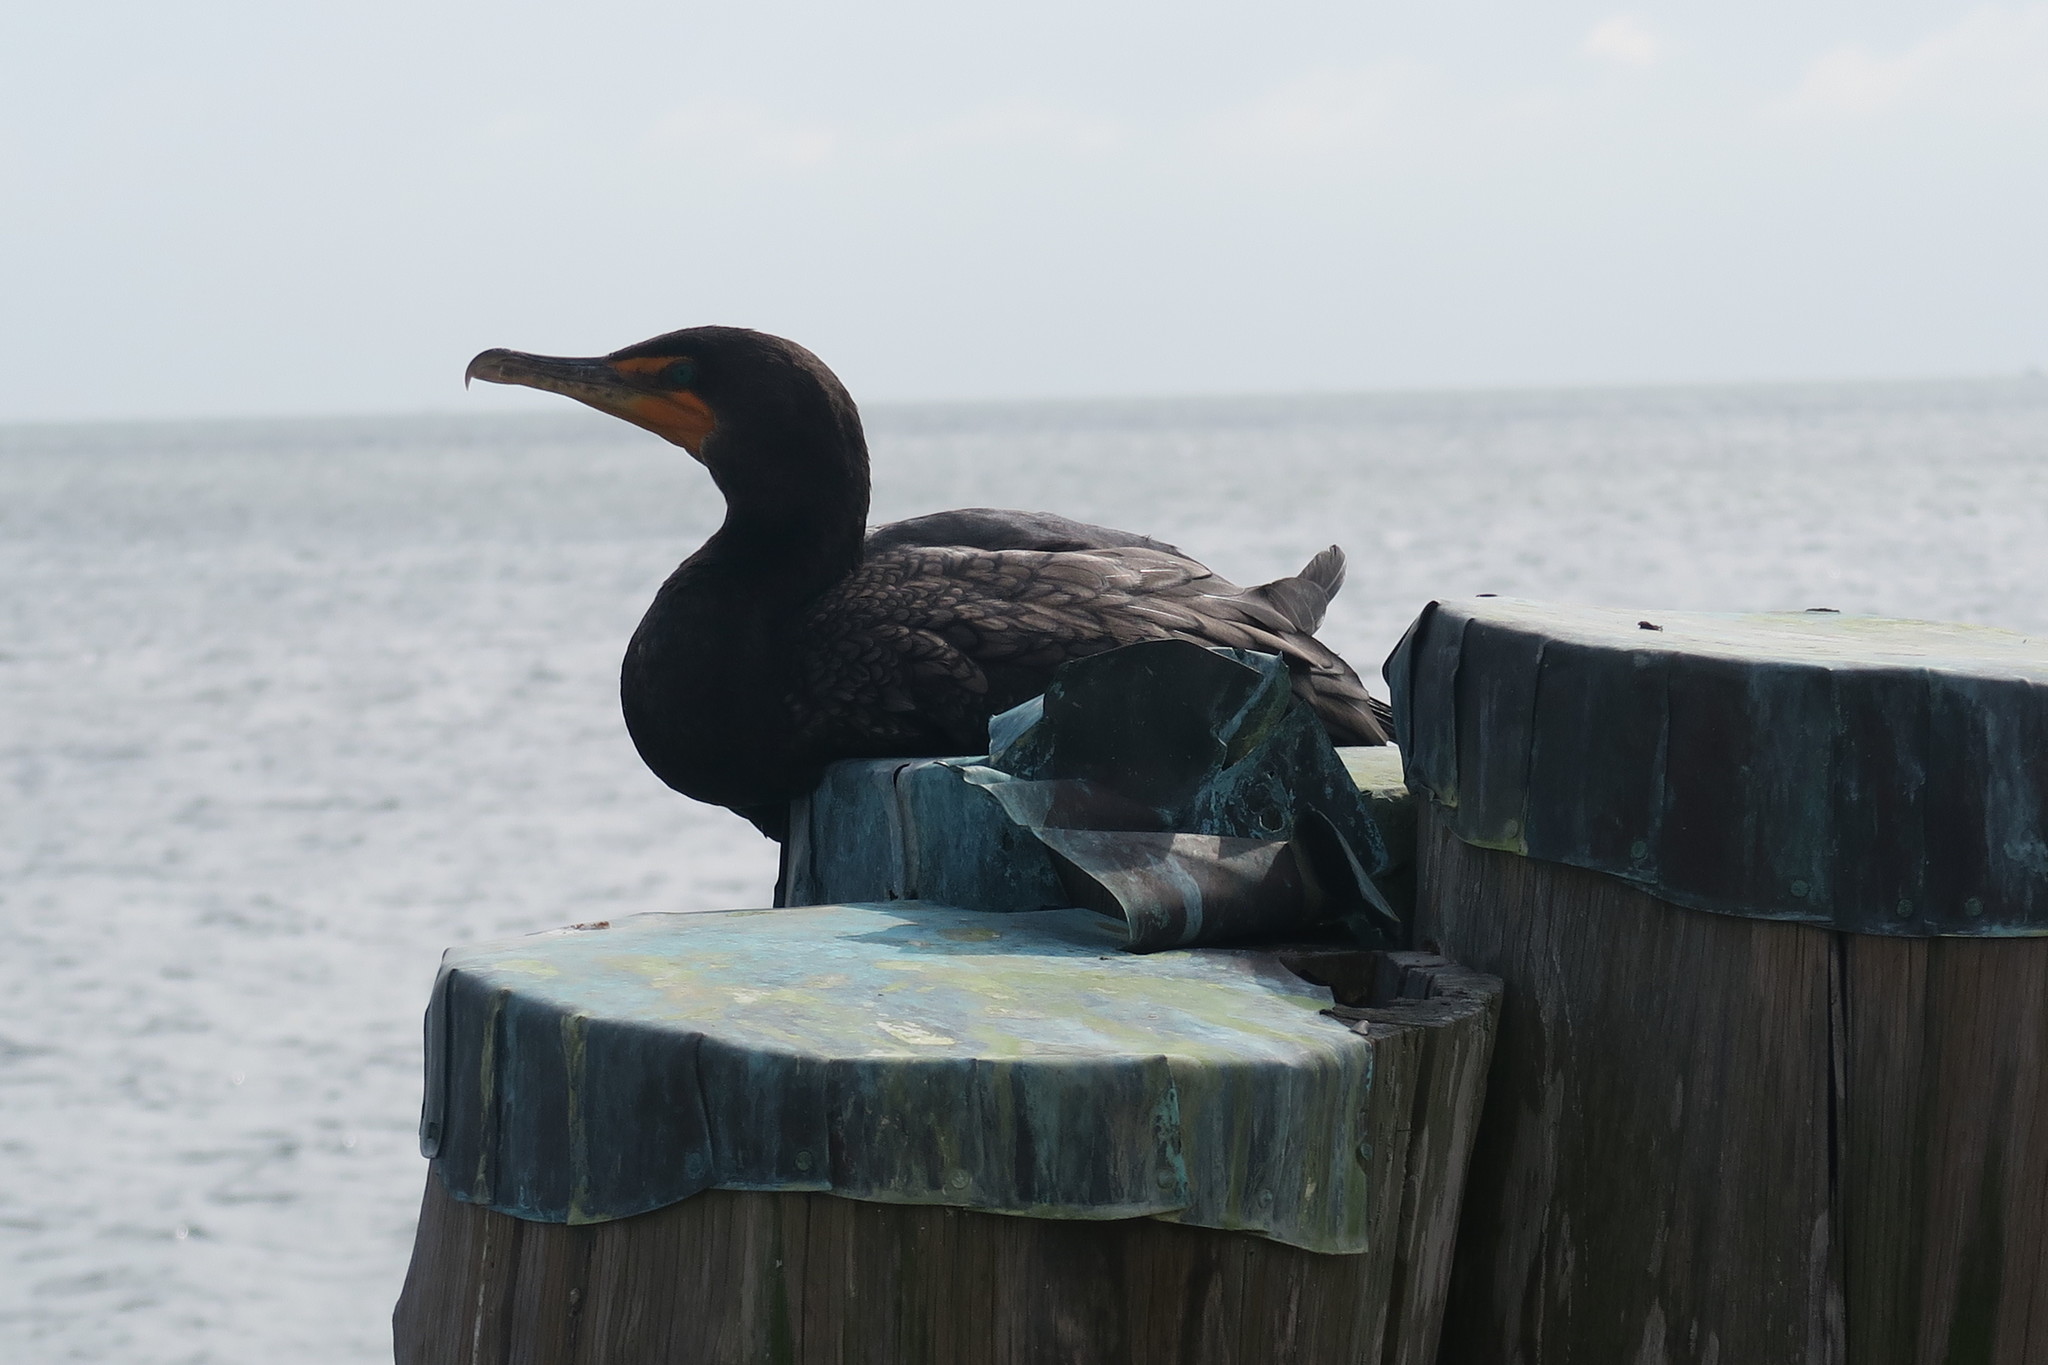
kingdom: Animalia
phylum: Chordata
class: Aves
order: Suliformes
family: Phalacrocoracidae
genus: Phalacrocorax
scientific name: Phalacrocorax auritus
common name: Double-crested cormorant
